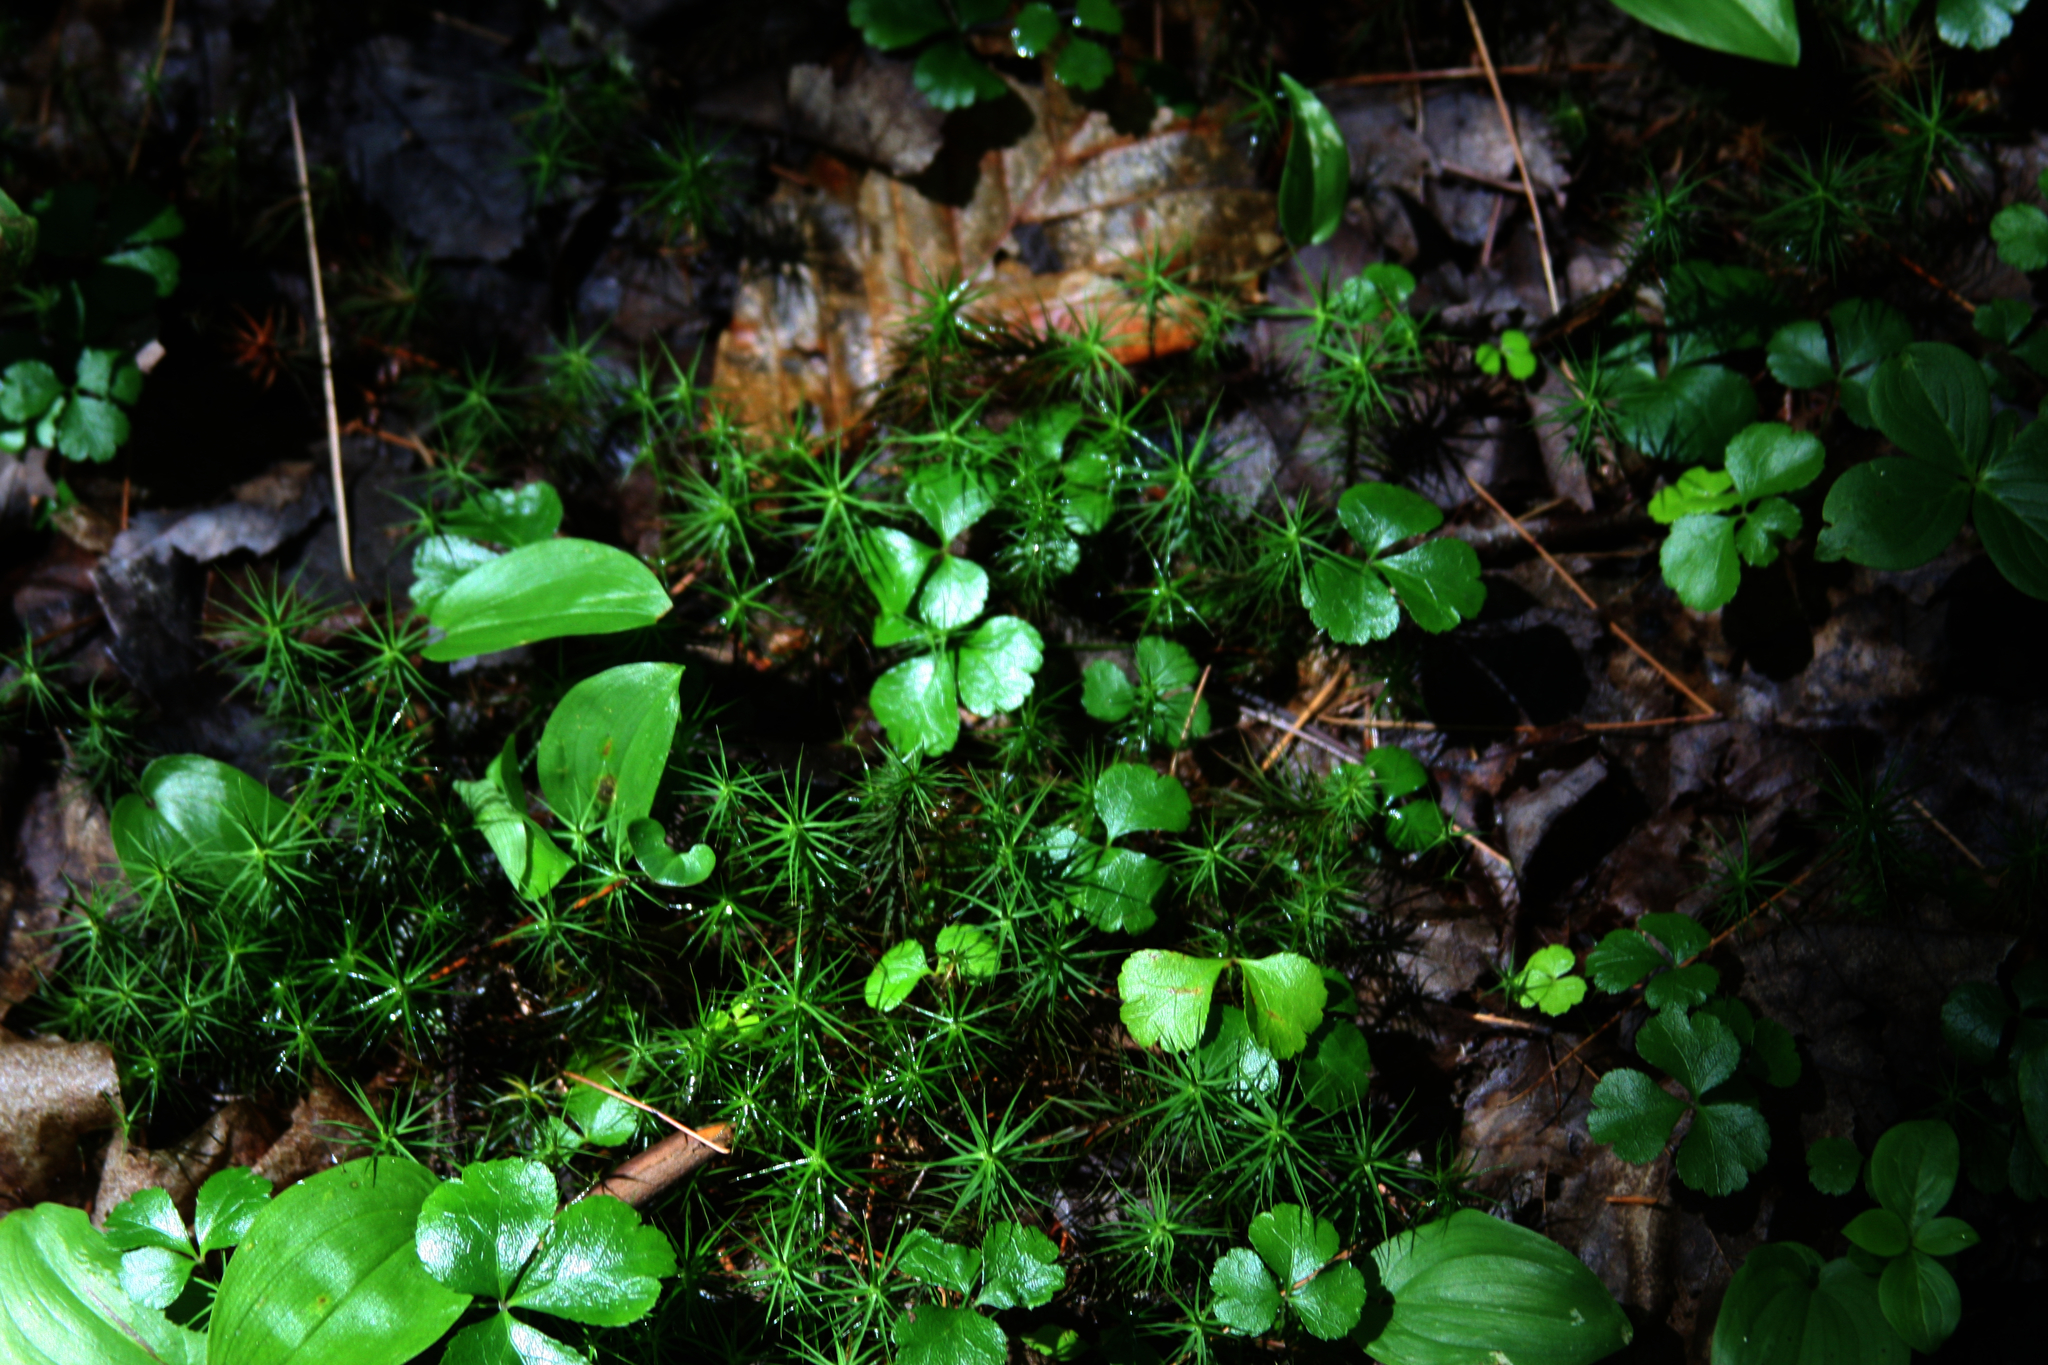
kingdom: Plantae
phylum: Tracheophyta
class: Liliopsida
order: Asparagales
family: Asparagaceae
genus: Maianthemum
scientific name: Maianthemum canadense
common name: False lily-of-the-valley
